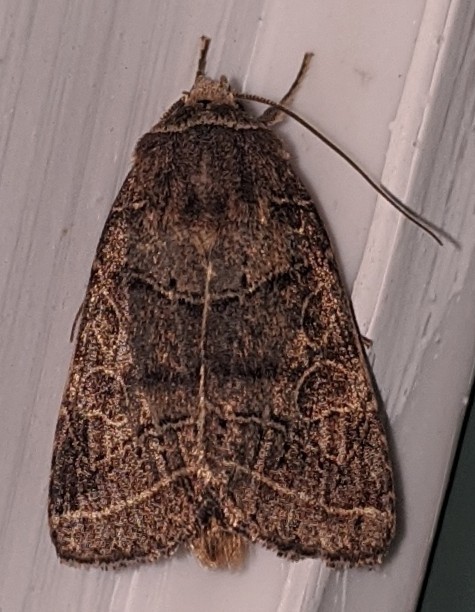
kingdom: Animalia
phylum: Arthropoda
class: Insecta
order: Lepidoptera
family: Noctuidae
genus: Orthodes
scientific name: Orthodes majuscula
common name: Rustic quaker
